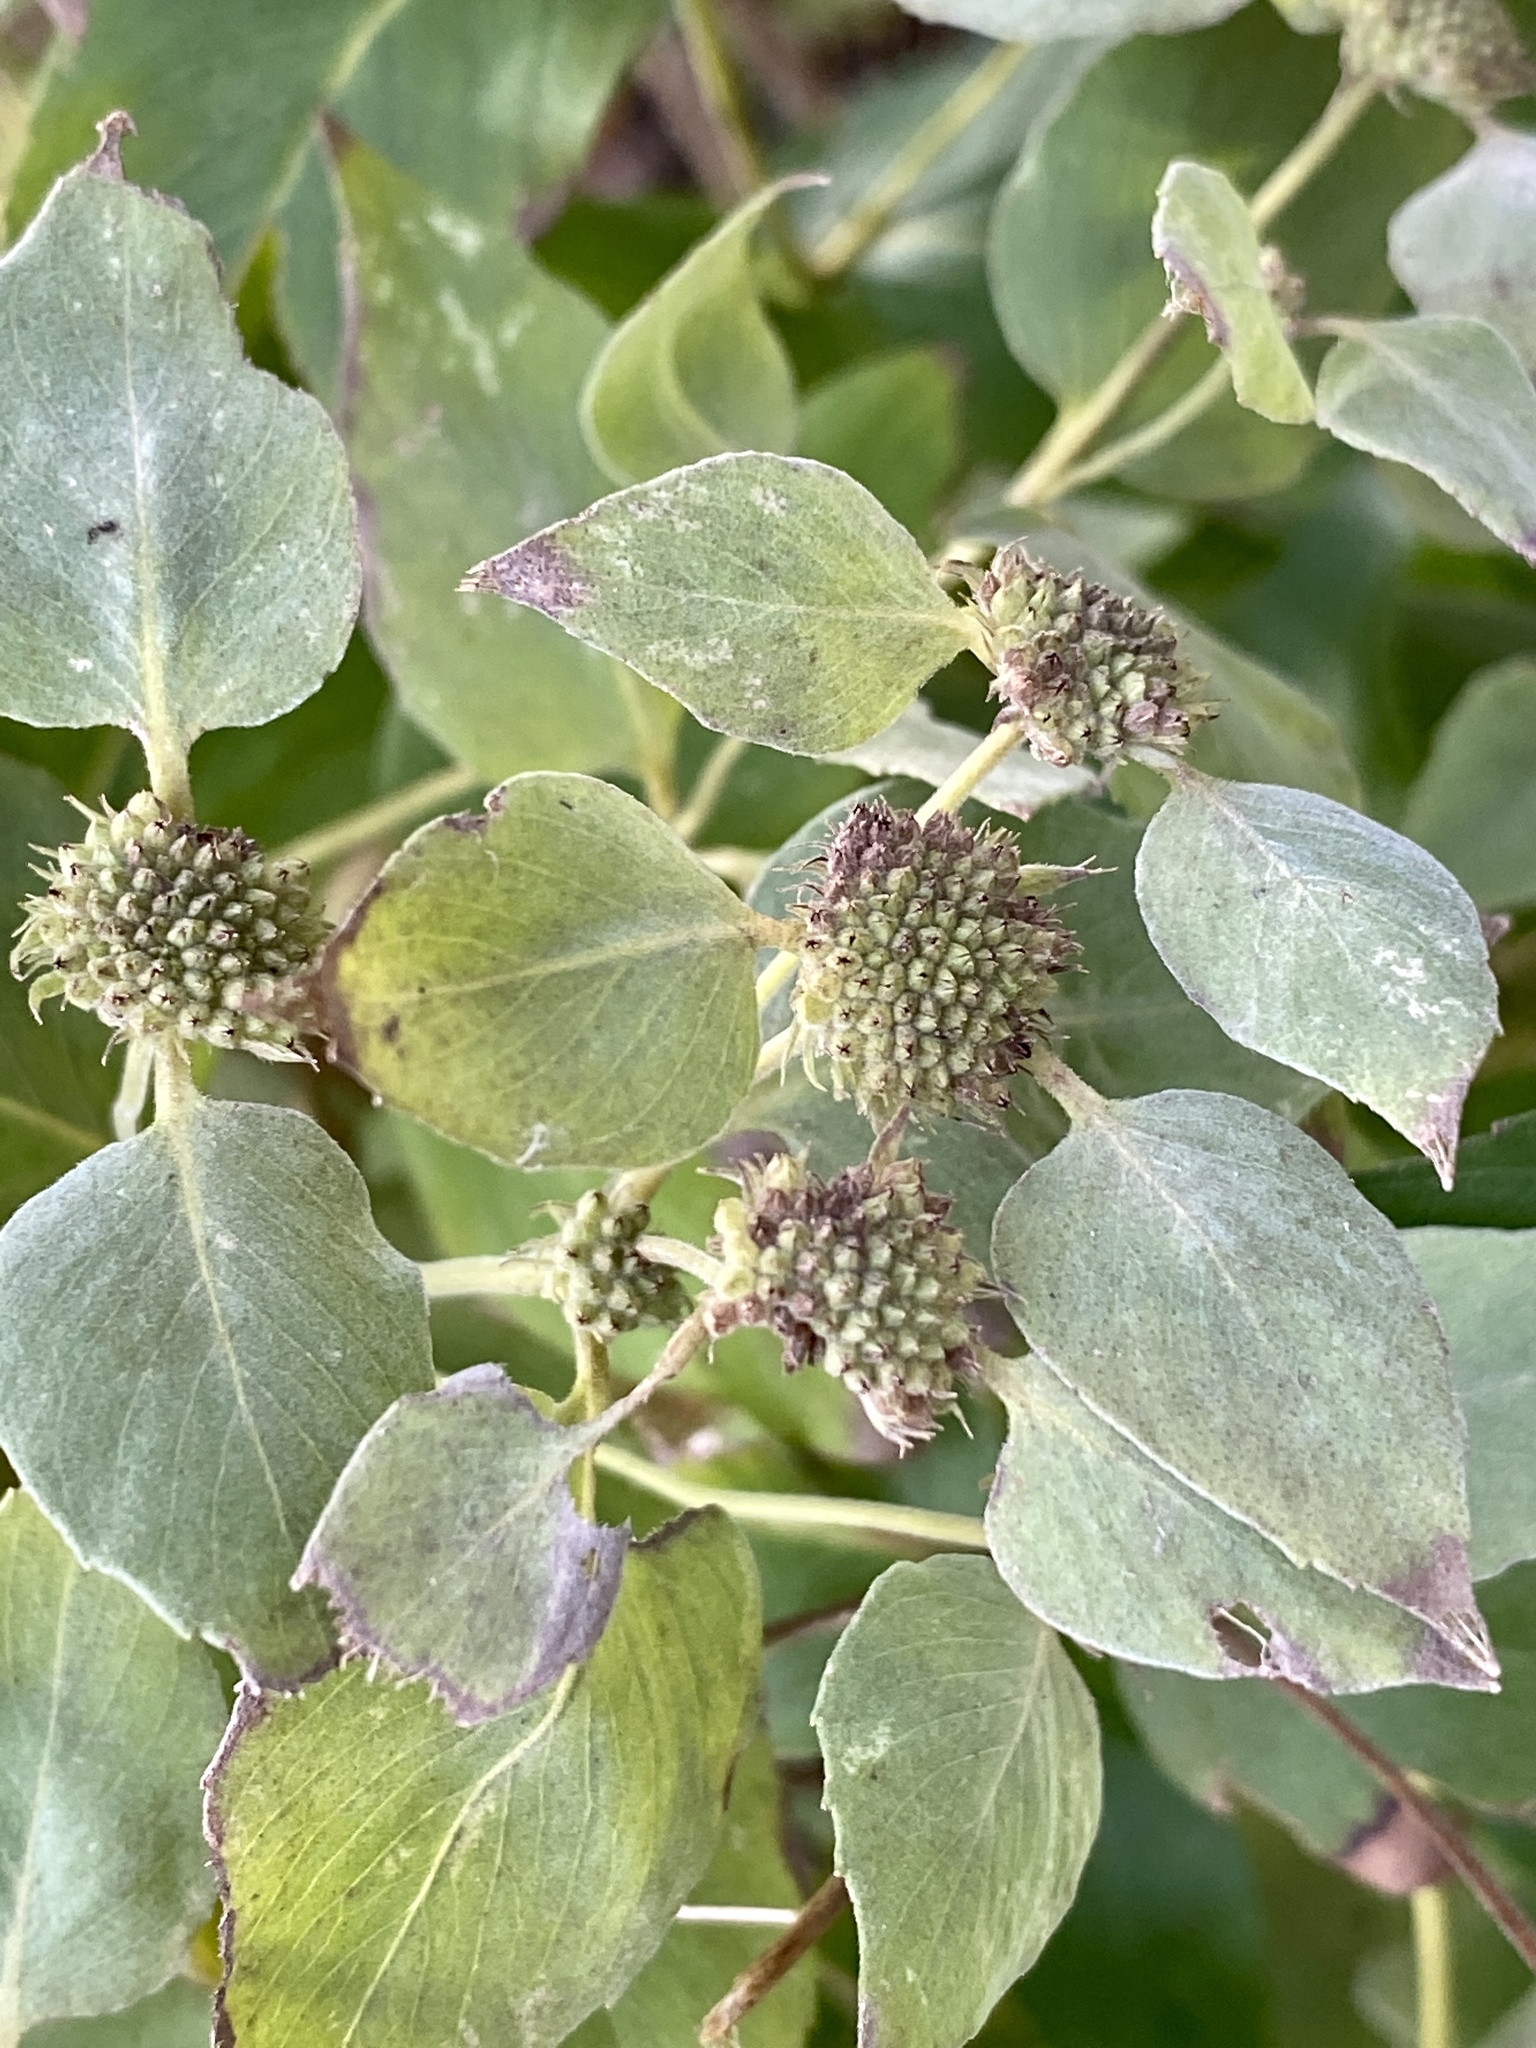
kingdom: Plantae
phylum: Tracheophyta
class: Magnoliopsida
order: Lamiales
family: Lamiaceae
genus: Pycnanthemum
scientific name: Pycnanthemum muticum
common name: Blunt mountain-mint
